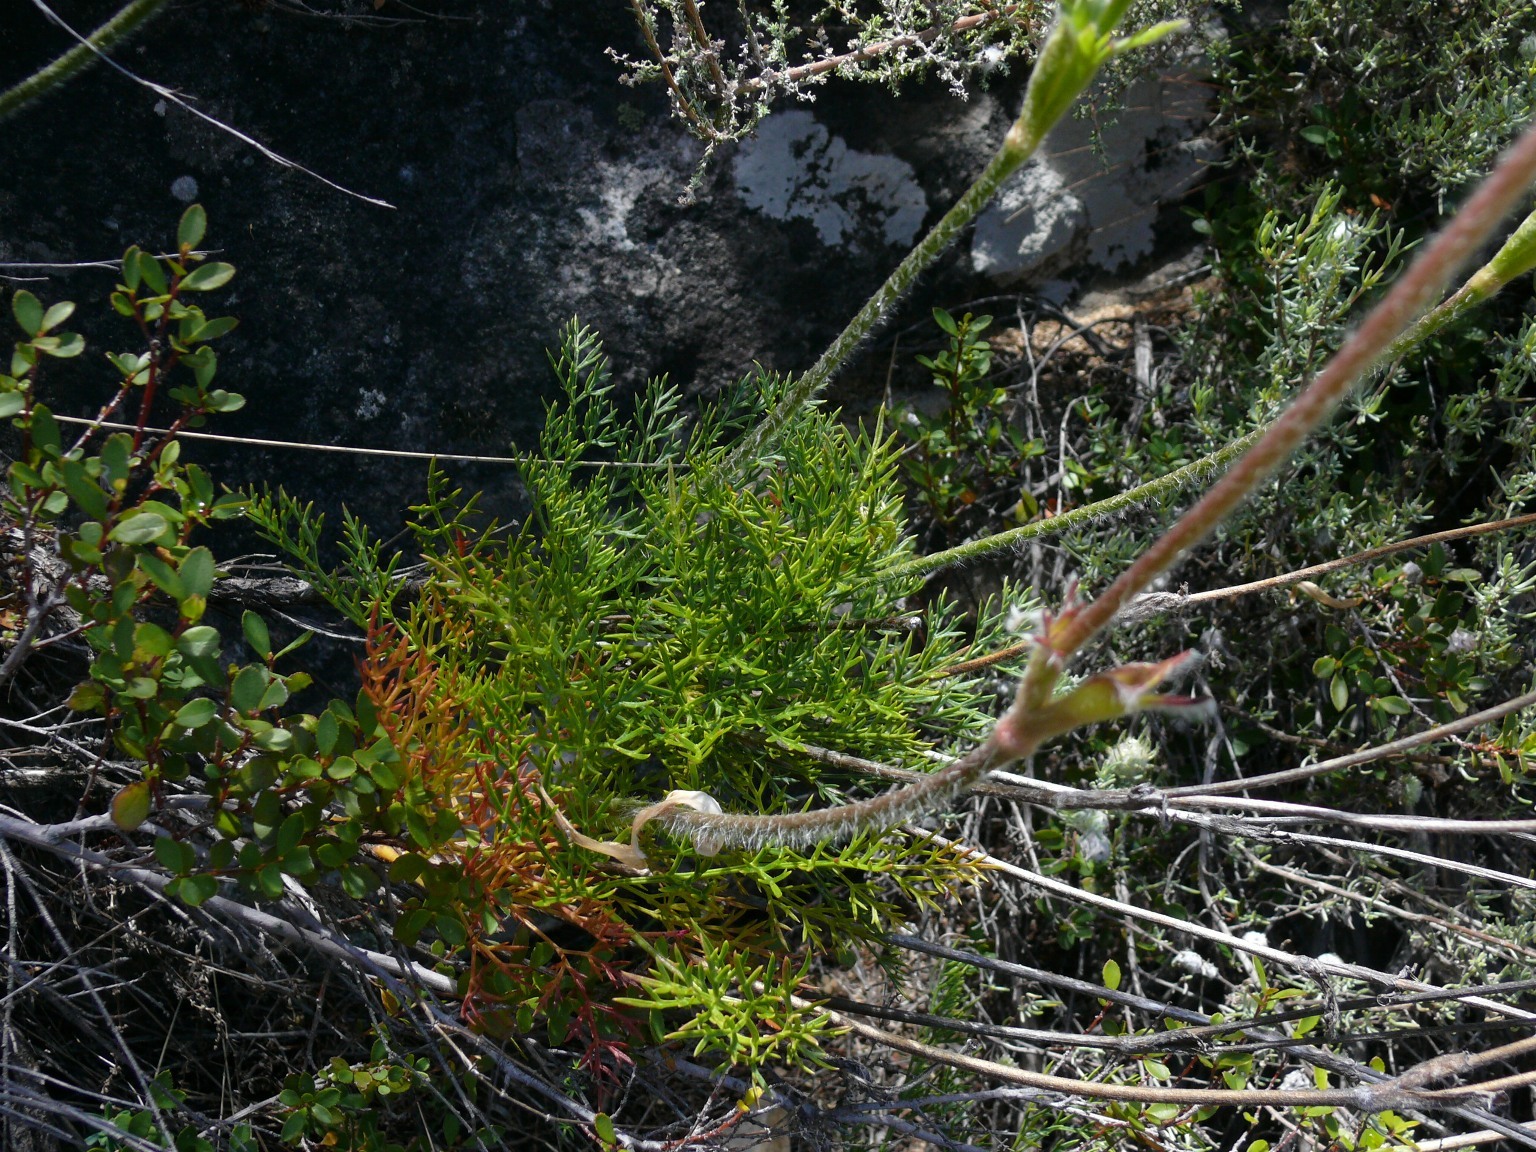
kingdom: Plantae
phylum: Tracheophyta
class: Magnoliopsida
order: Ranunculales
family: Ranunculaceae
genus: Knowltonia
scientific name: Knowltonia tenuifolia
